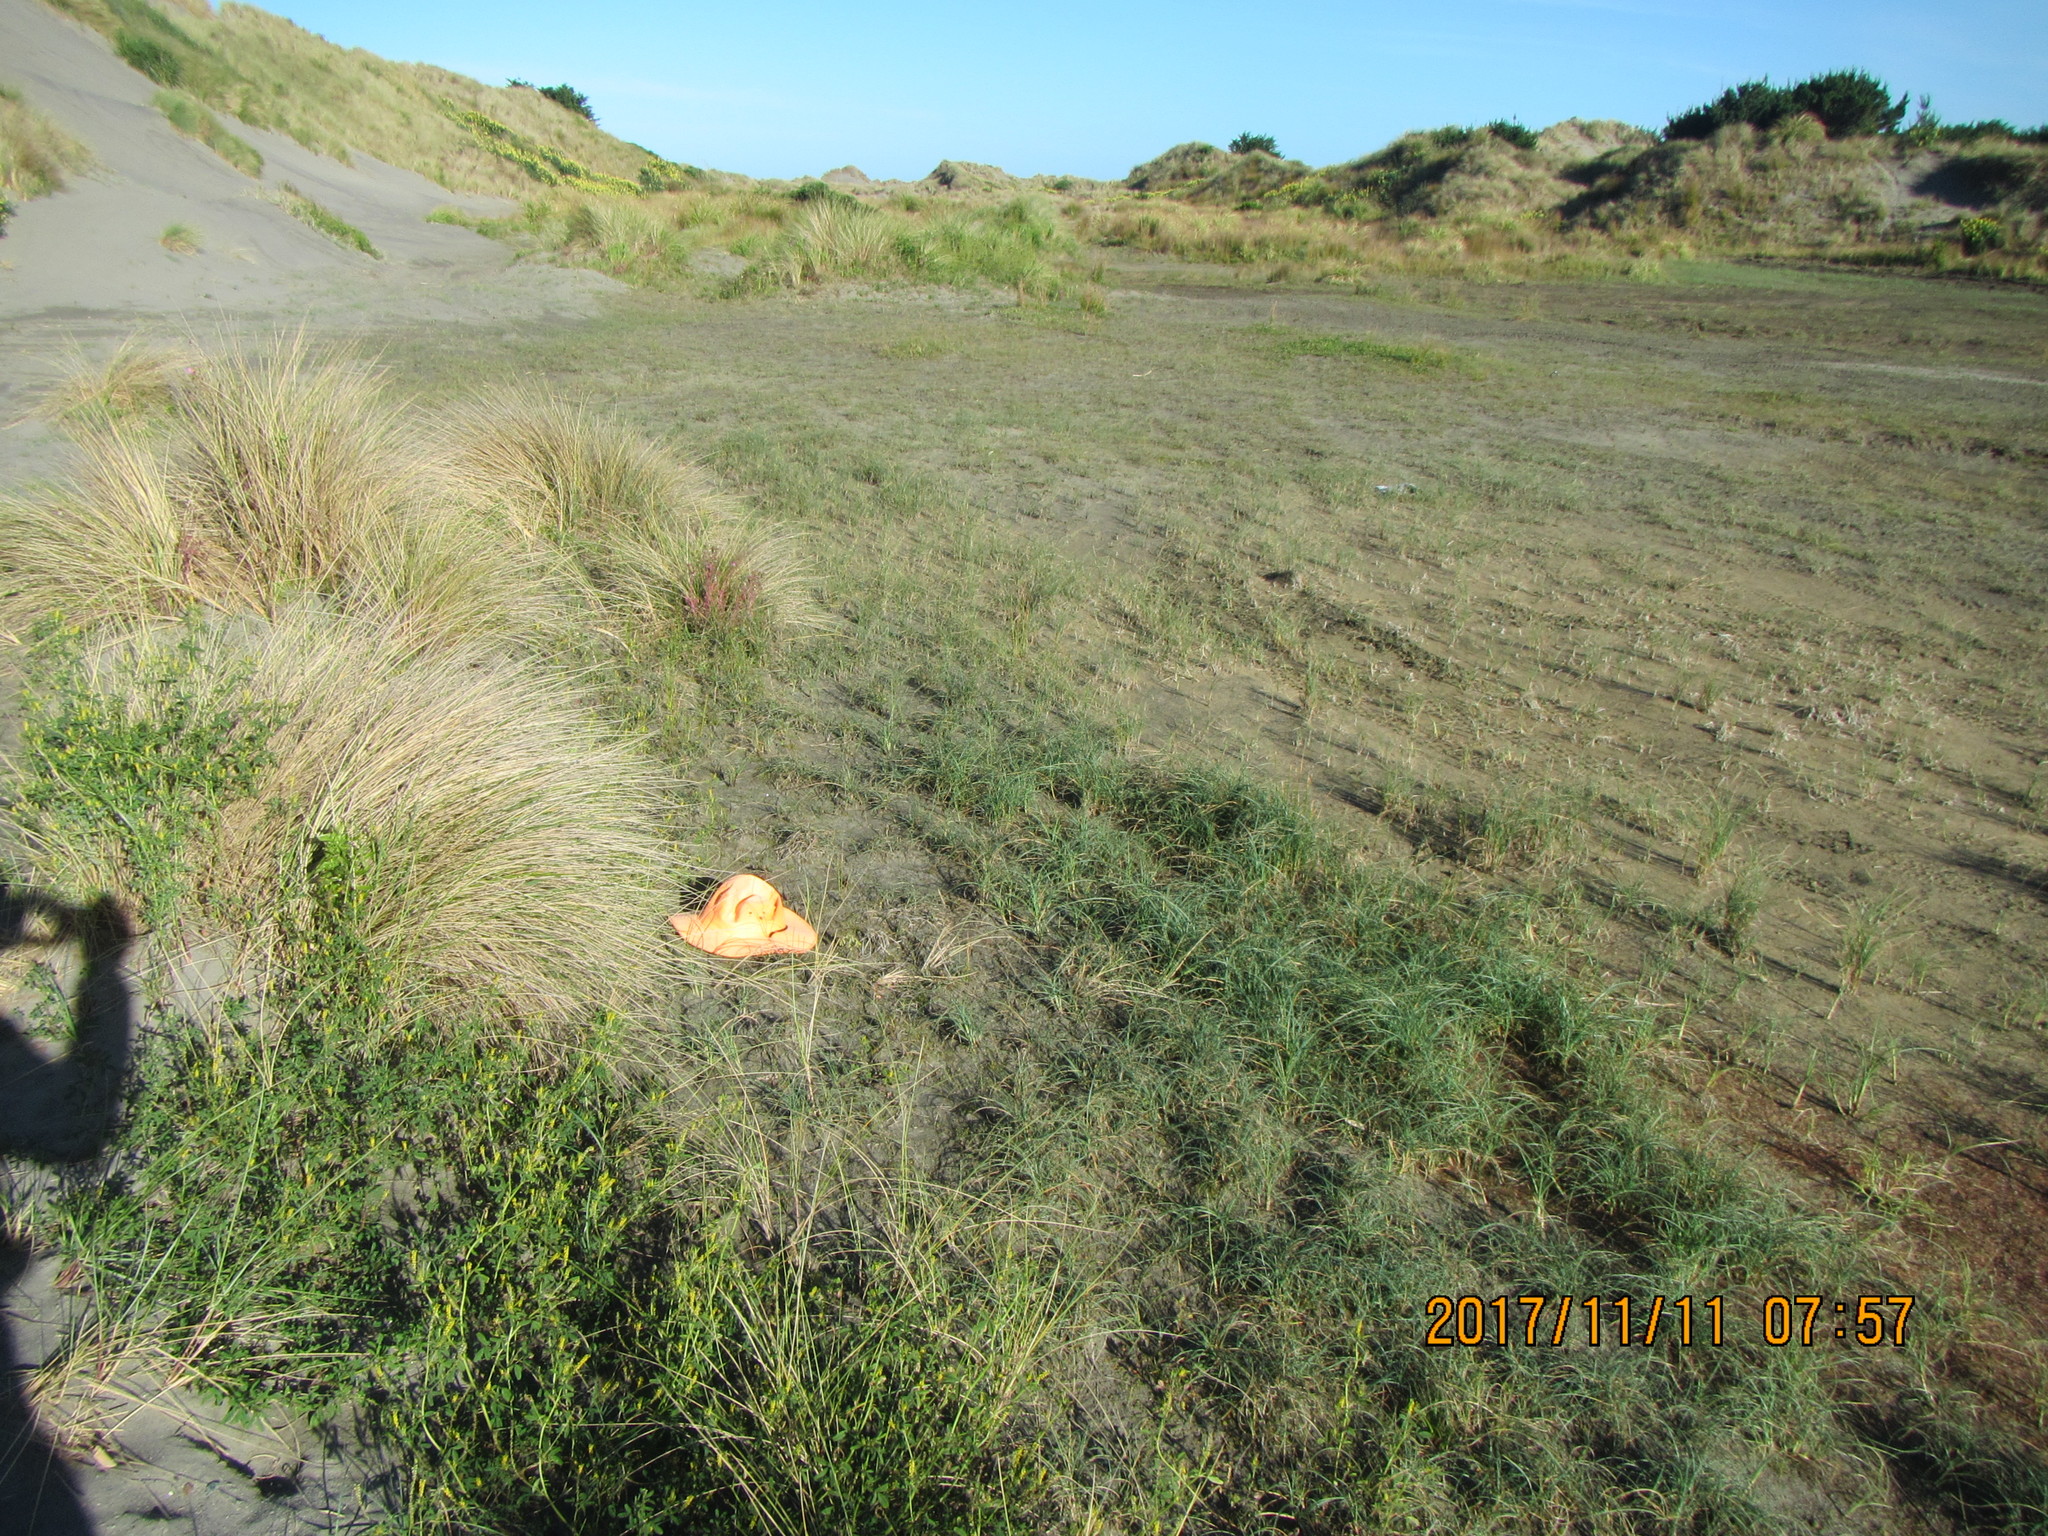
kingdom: Plantae
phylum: Tracheophyta
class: Magnoliopsida
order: Asterales
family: Goodeniaceae
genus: Goodenia
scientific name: Goodenia heenanii
